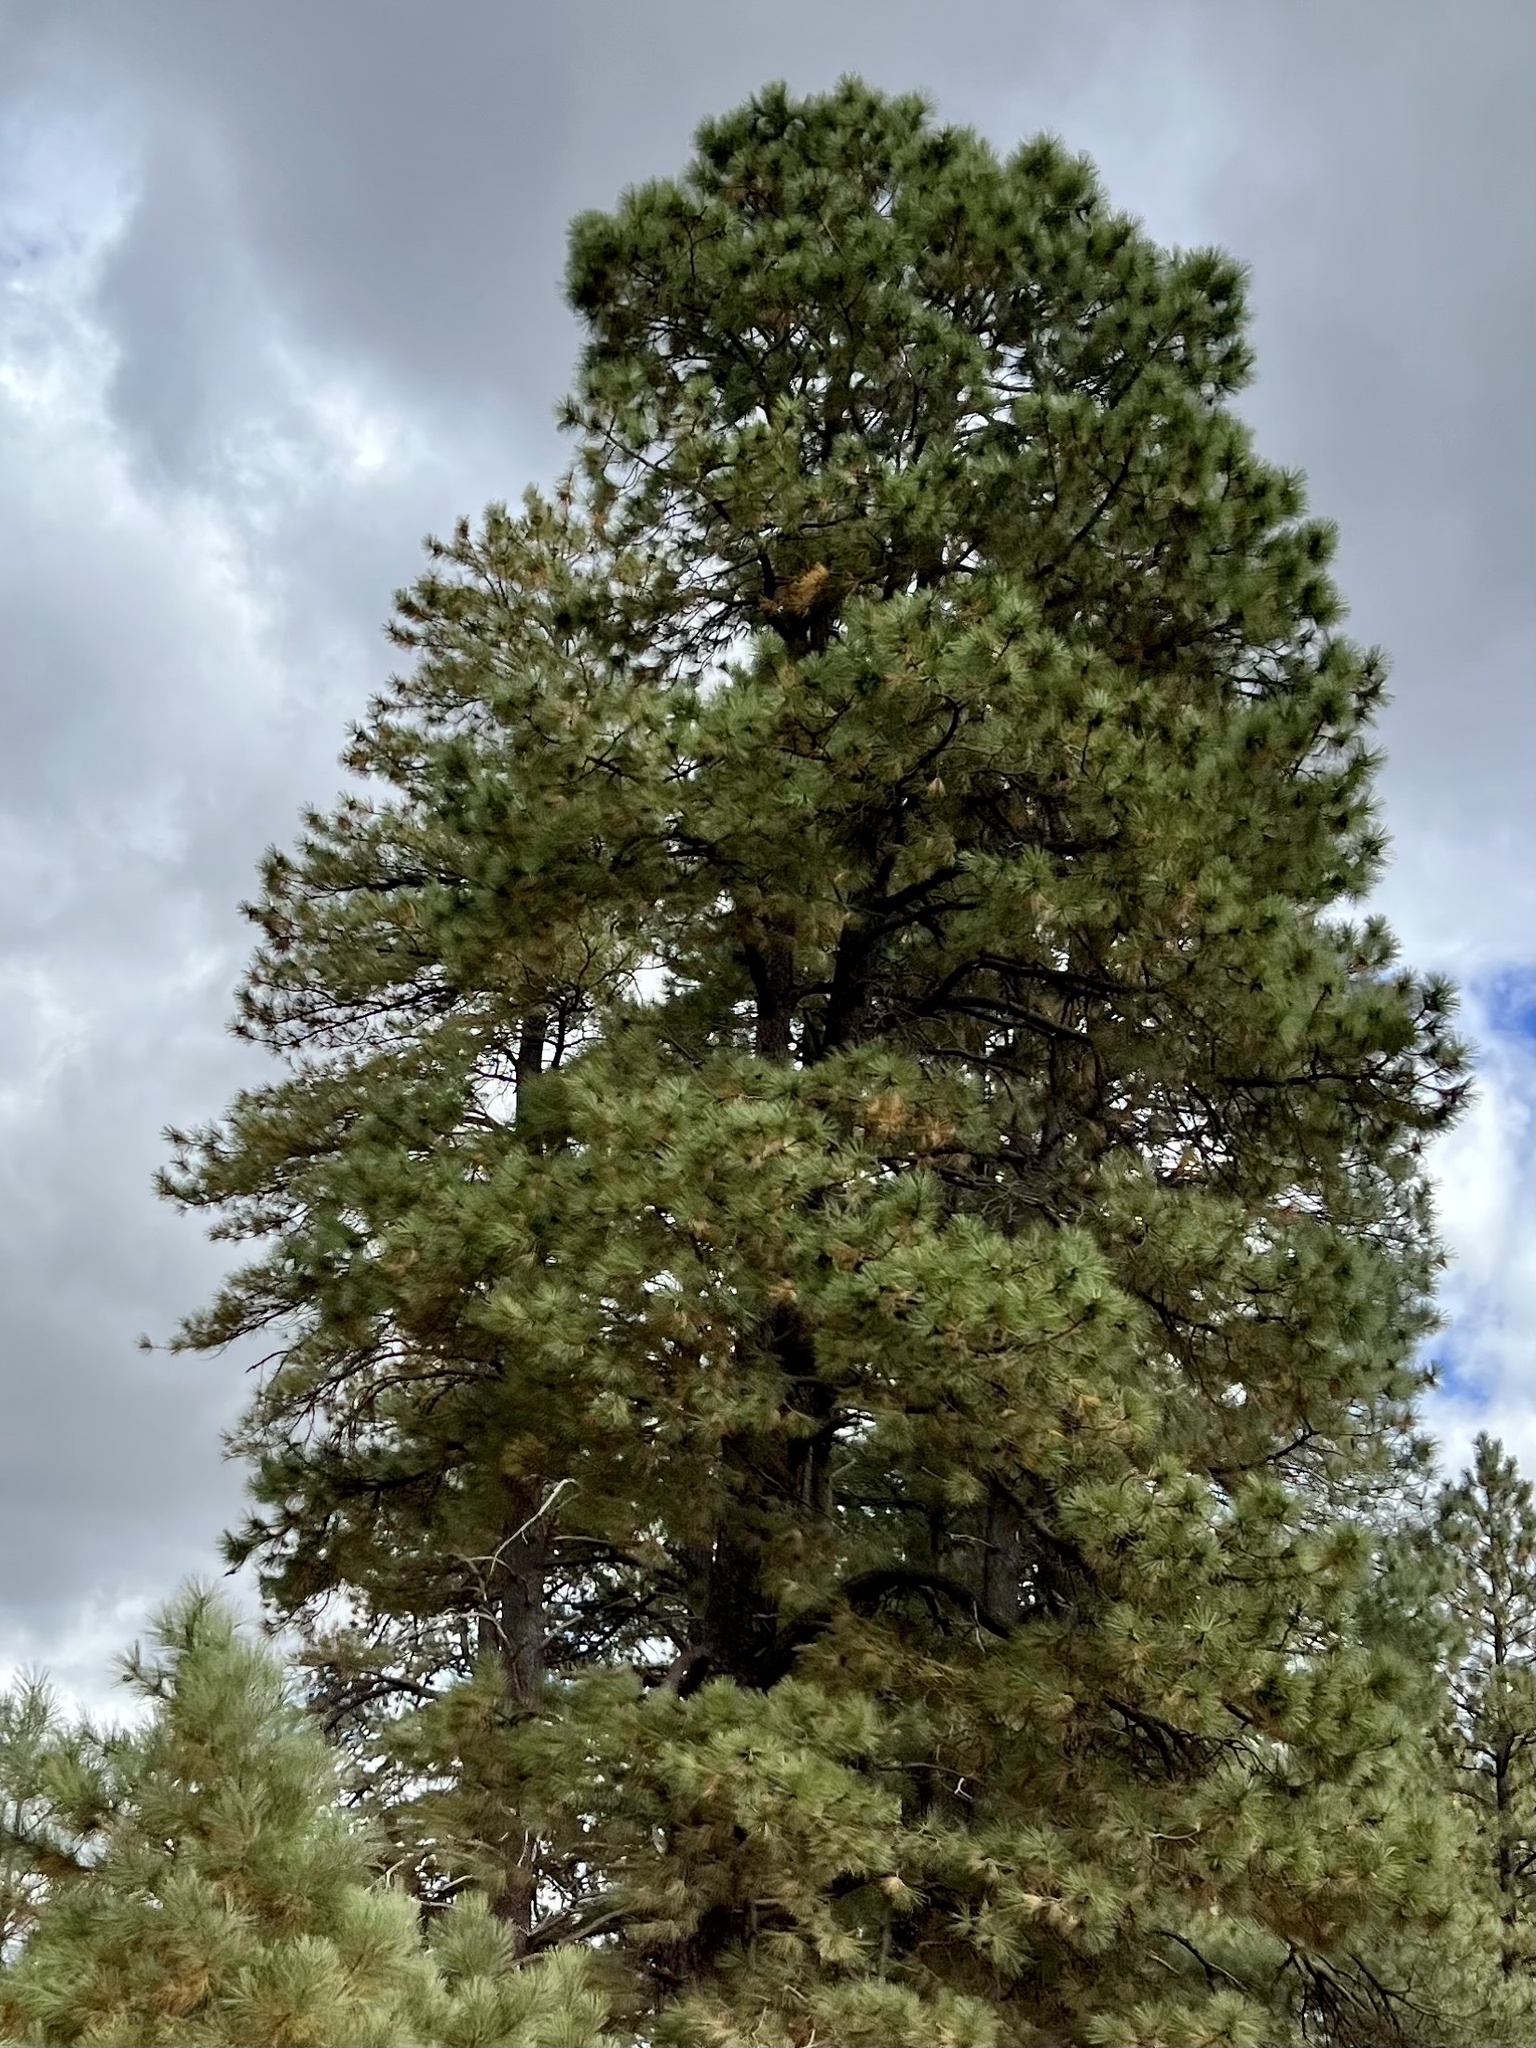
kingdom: Plantae
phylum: Tracheophyta
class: Pinopsida
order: Pinales
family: Pinaceae
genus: Pinus
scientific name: Pinus ponderosa
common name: Western yellow-pine
